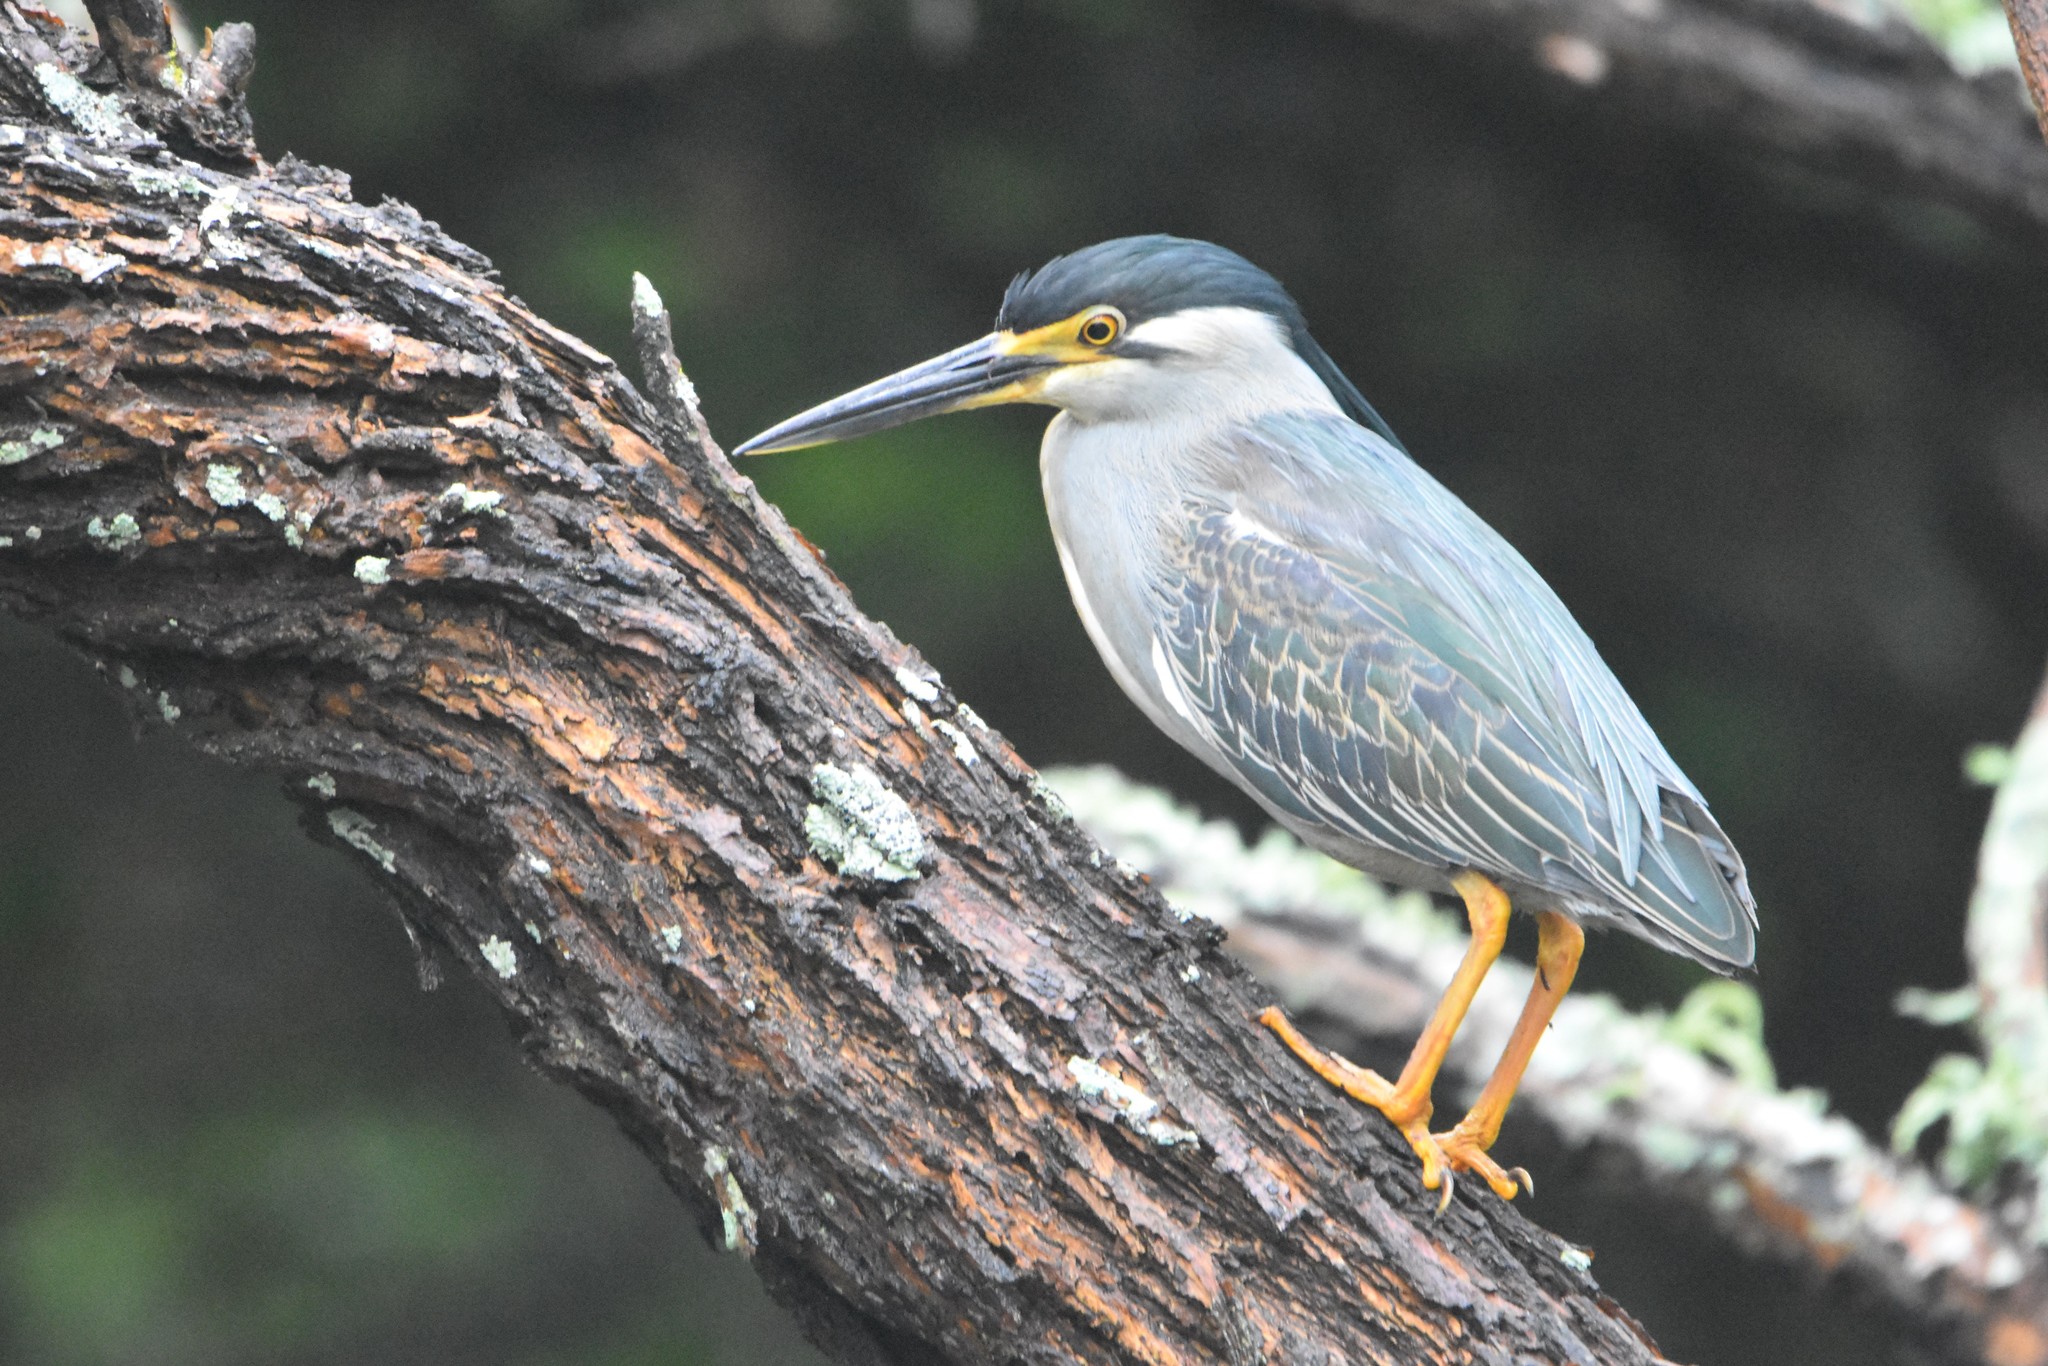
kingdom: Animalia
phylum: Chordata
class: Aves
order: Pelecaniformes
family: Ardeidae
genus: Butorides
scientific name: Butorides striata
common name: Striated heron
